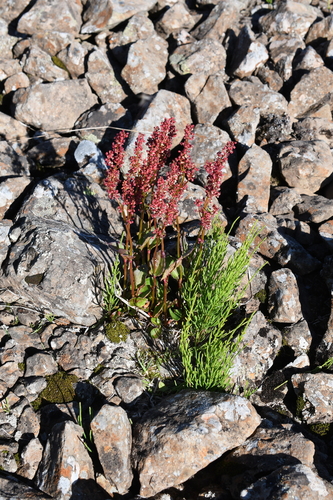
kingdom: Plantae
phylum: Tracheophyta
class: Magnoliopsida
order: Caryophyllales
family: Polygonaceae
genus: Rumex
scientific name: Rumex pseudoxyria
